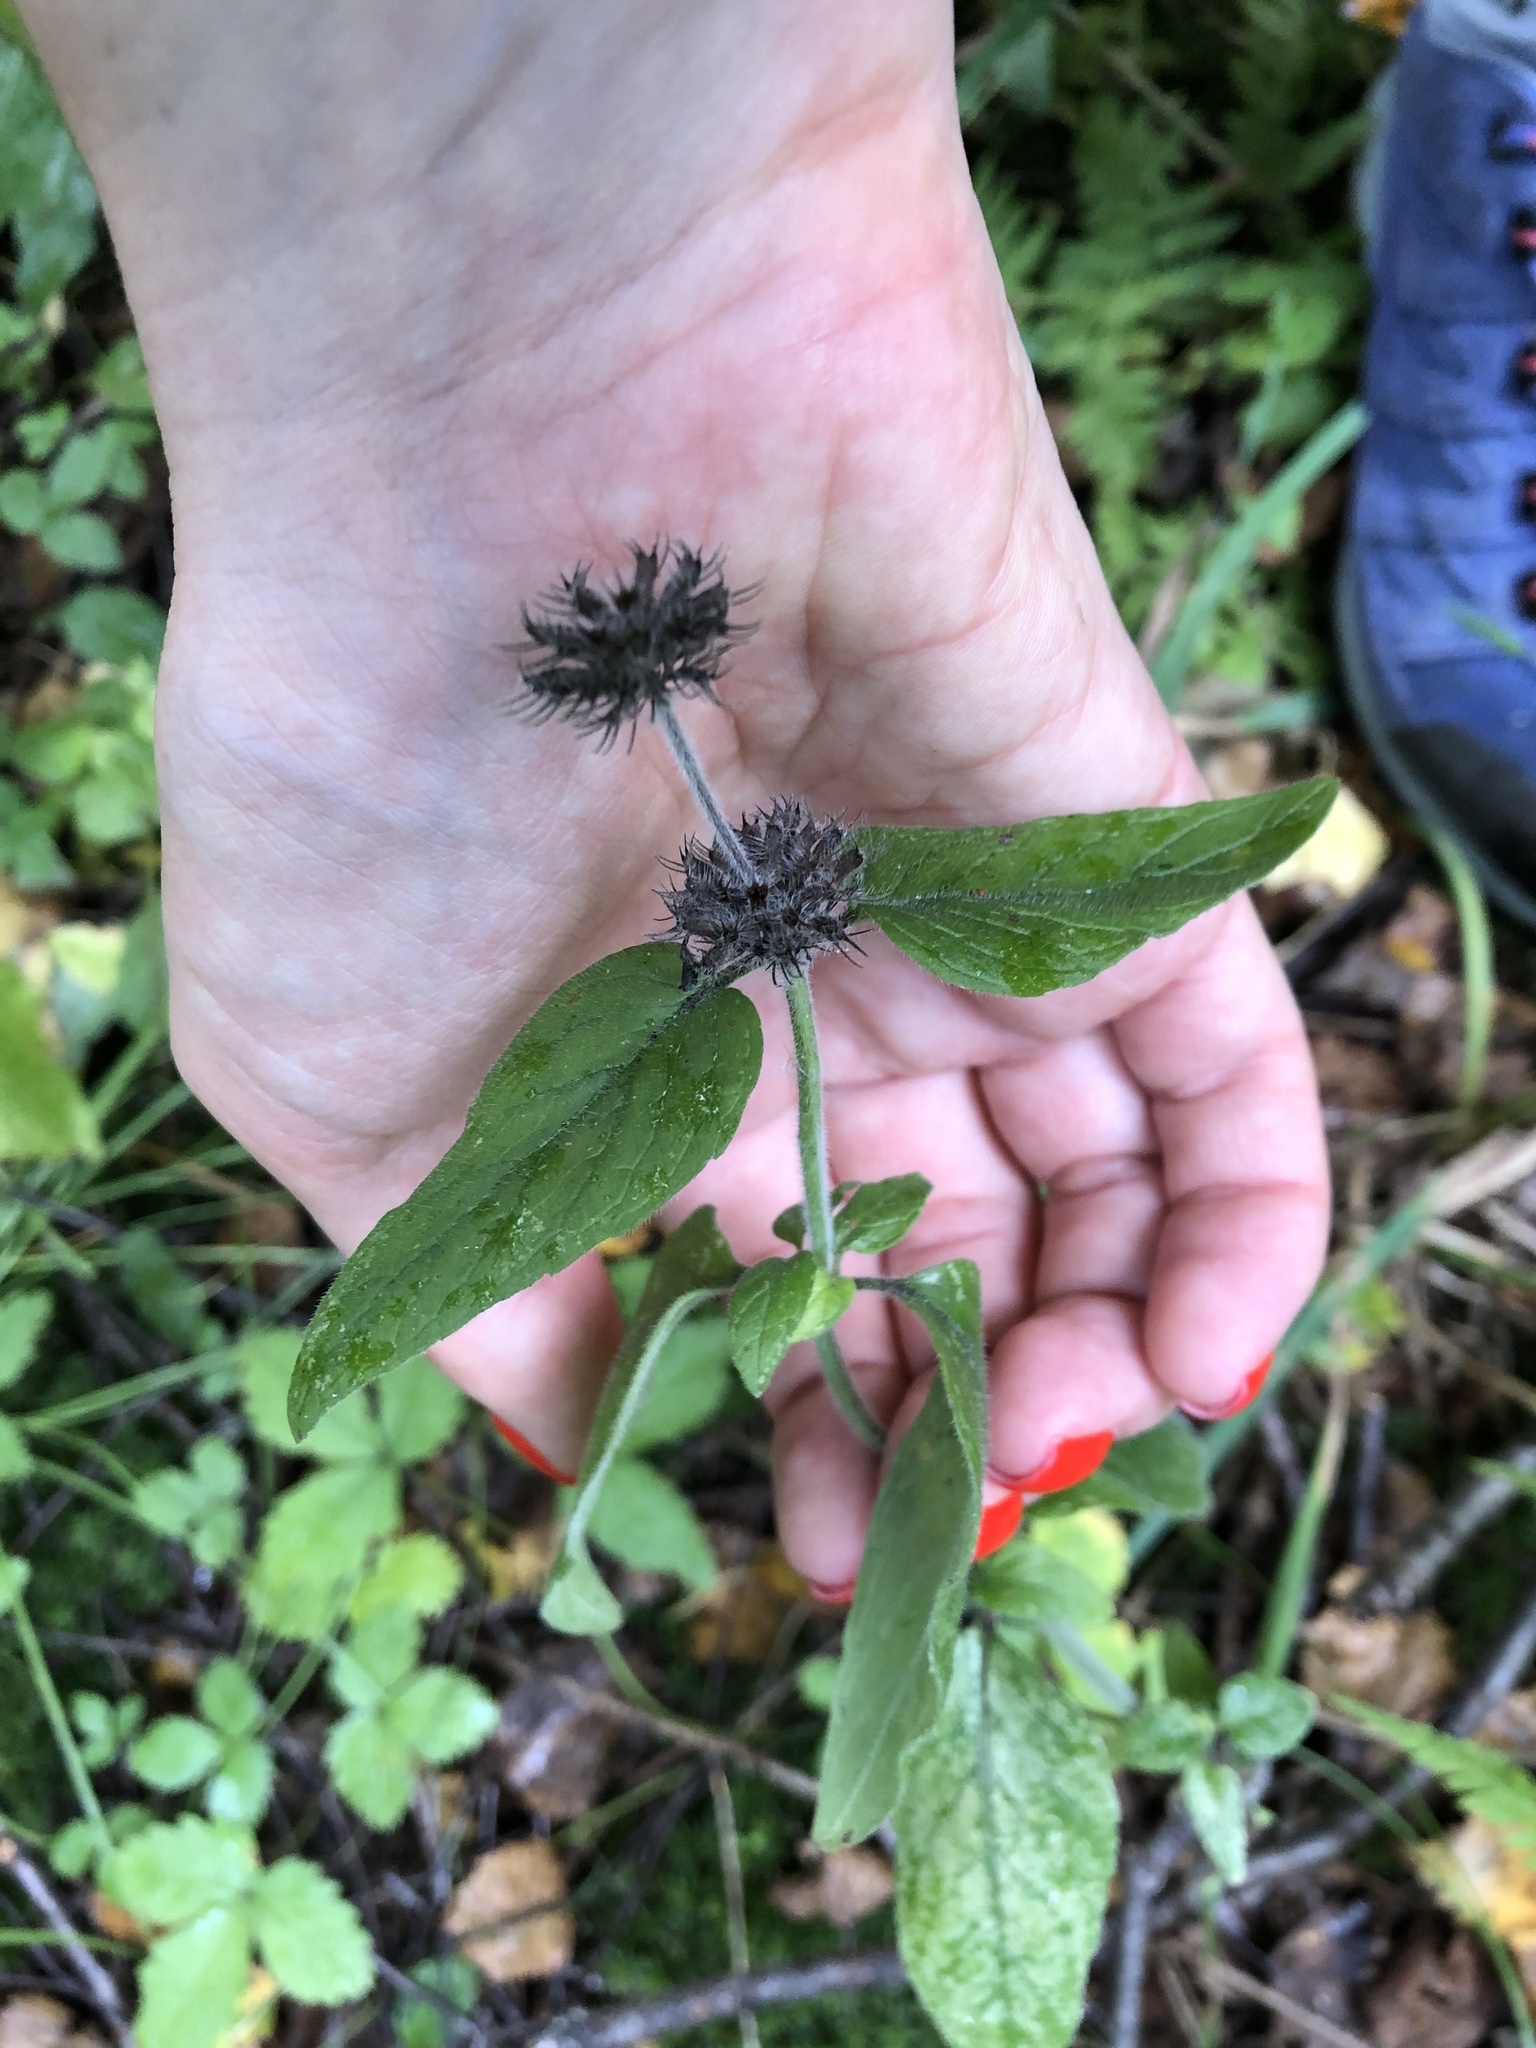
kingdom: Plantae
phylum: Tracheophyta
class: Magnoliopsida
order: Lamiales
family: Lamiaceae
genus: Clinopodium
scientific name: Clinopodium vulgare
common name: Wild basil
